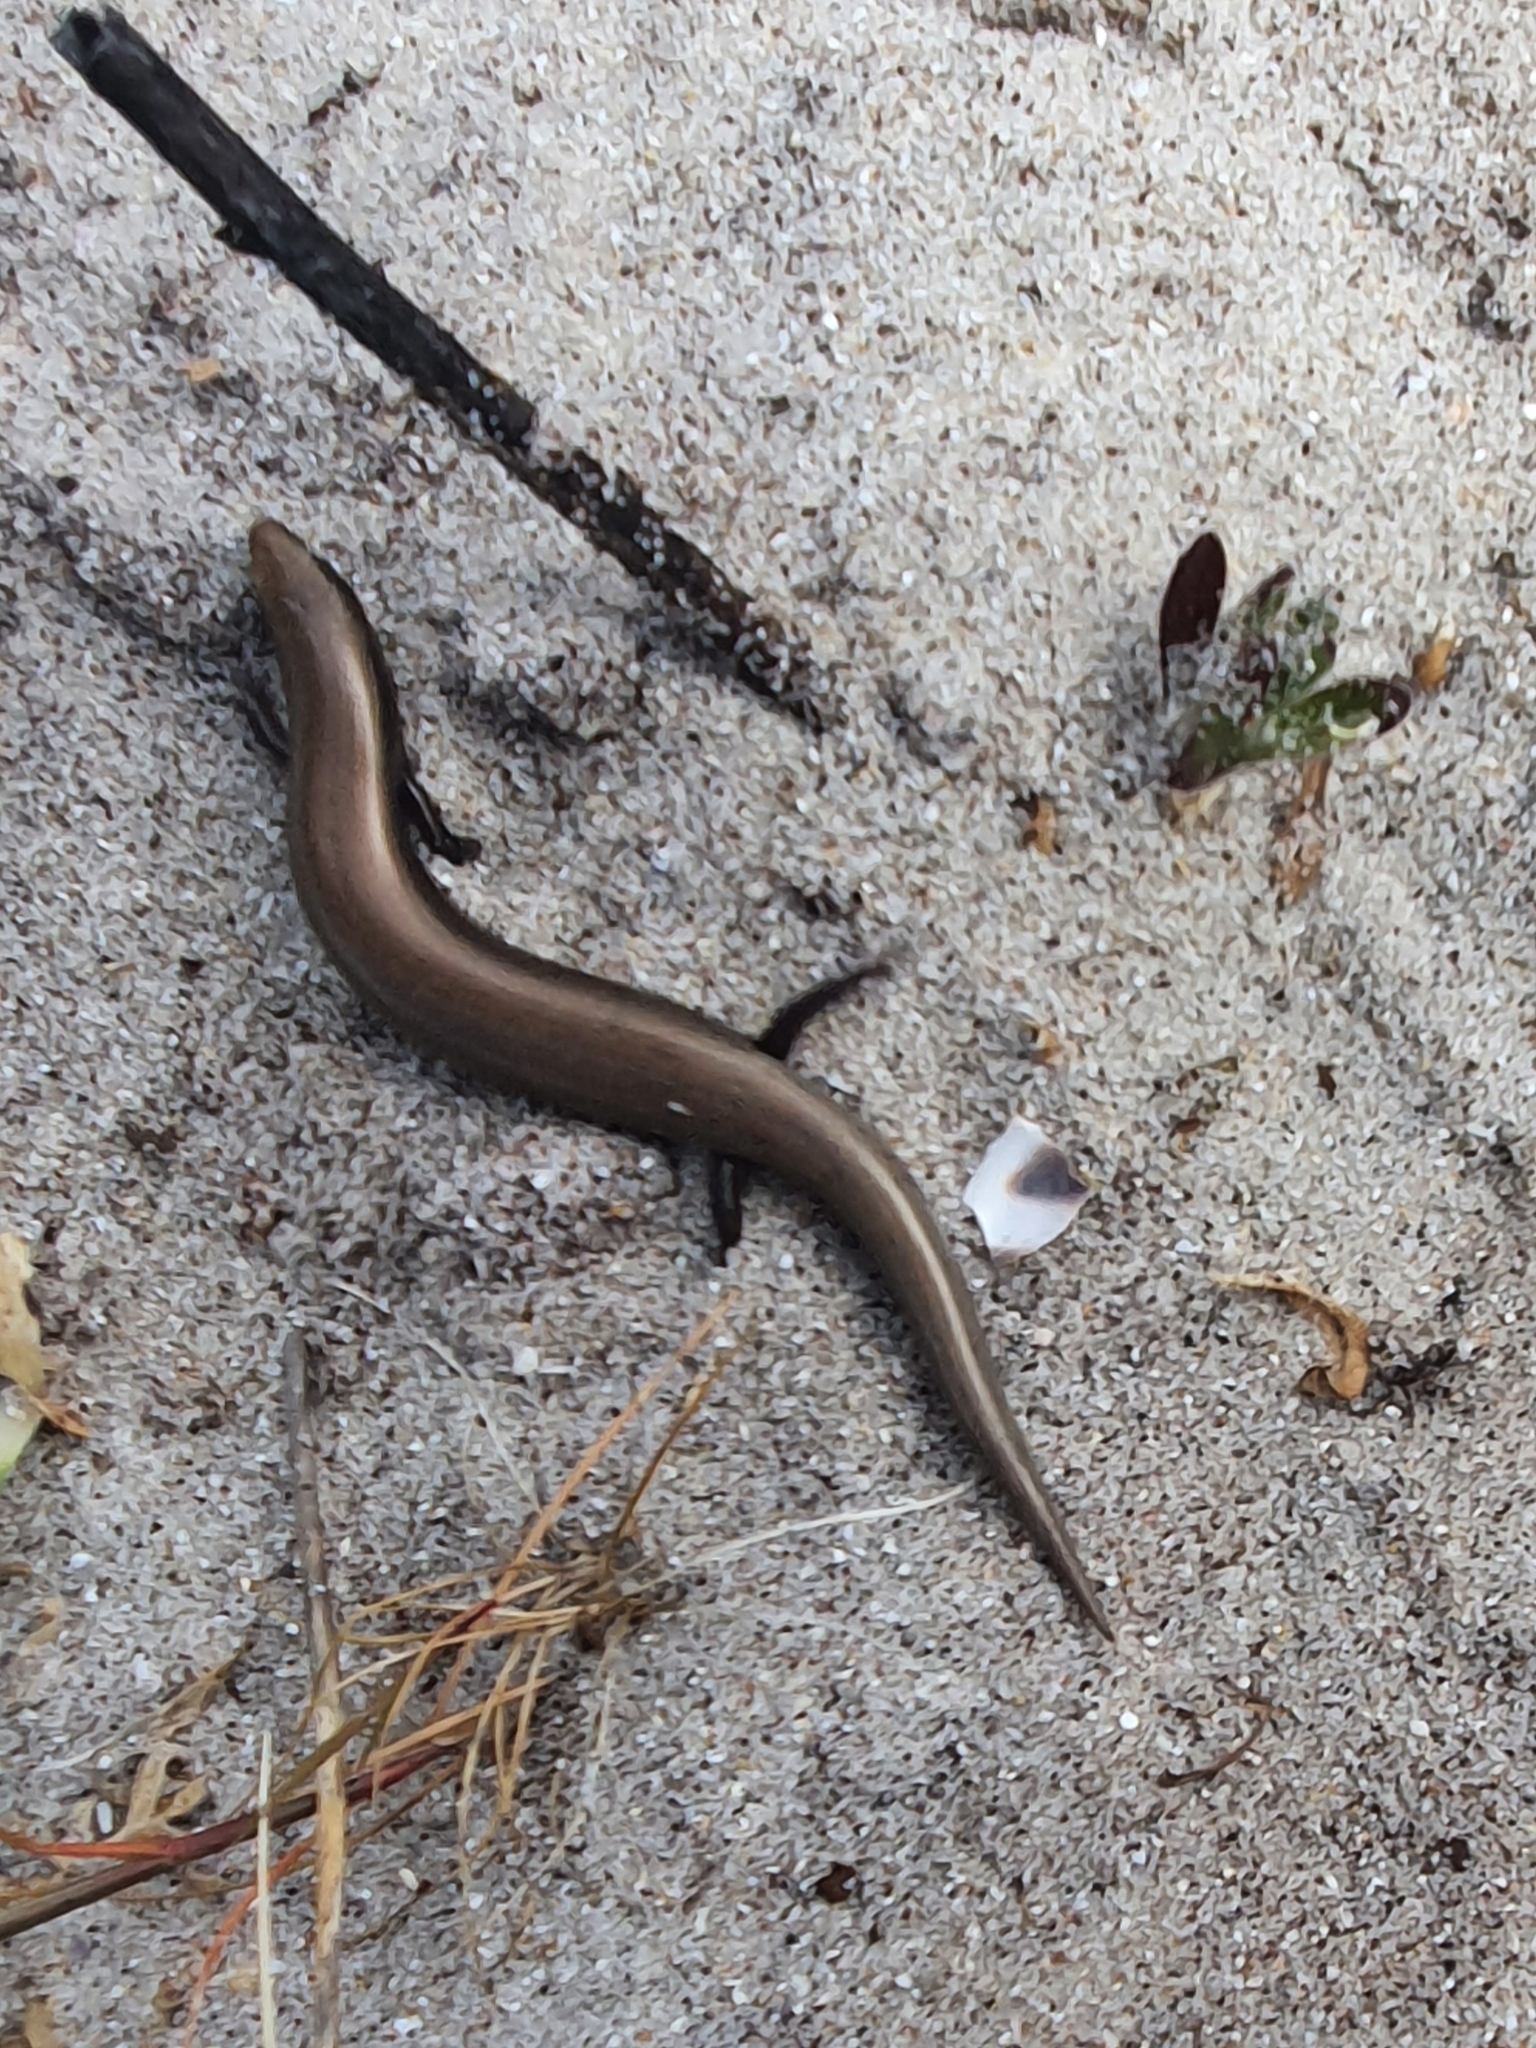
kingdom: Animalia
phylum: Chordata
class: Squamata
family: Scincidae
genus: Chalcides
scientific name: Chalcides bedriagai
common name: Spanish cylindrical skink
